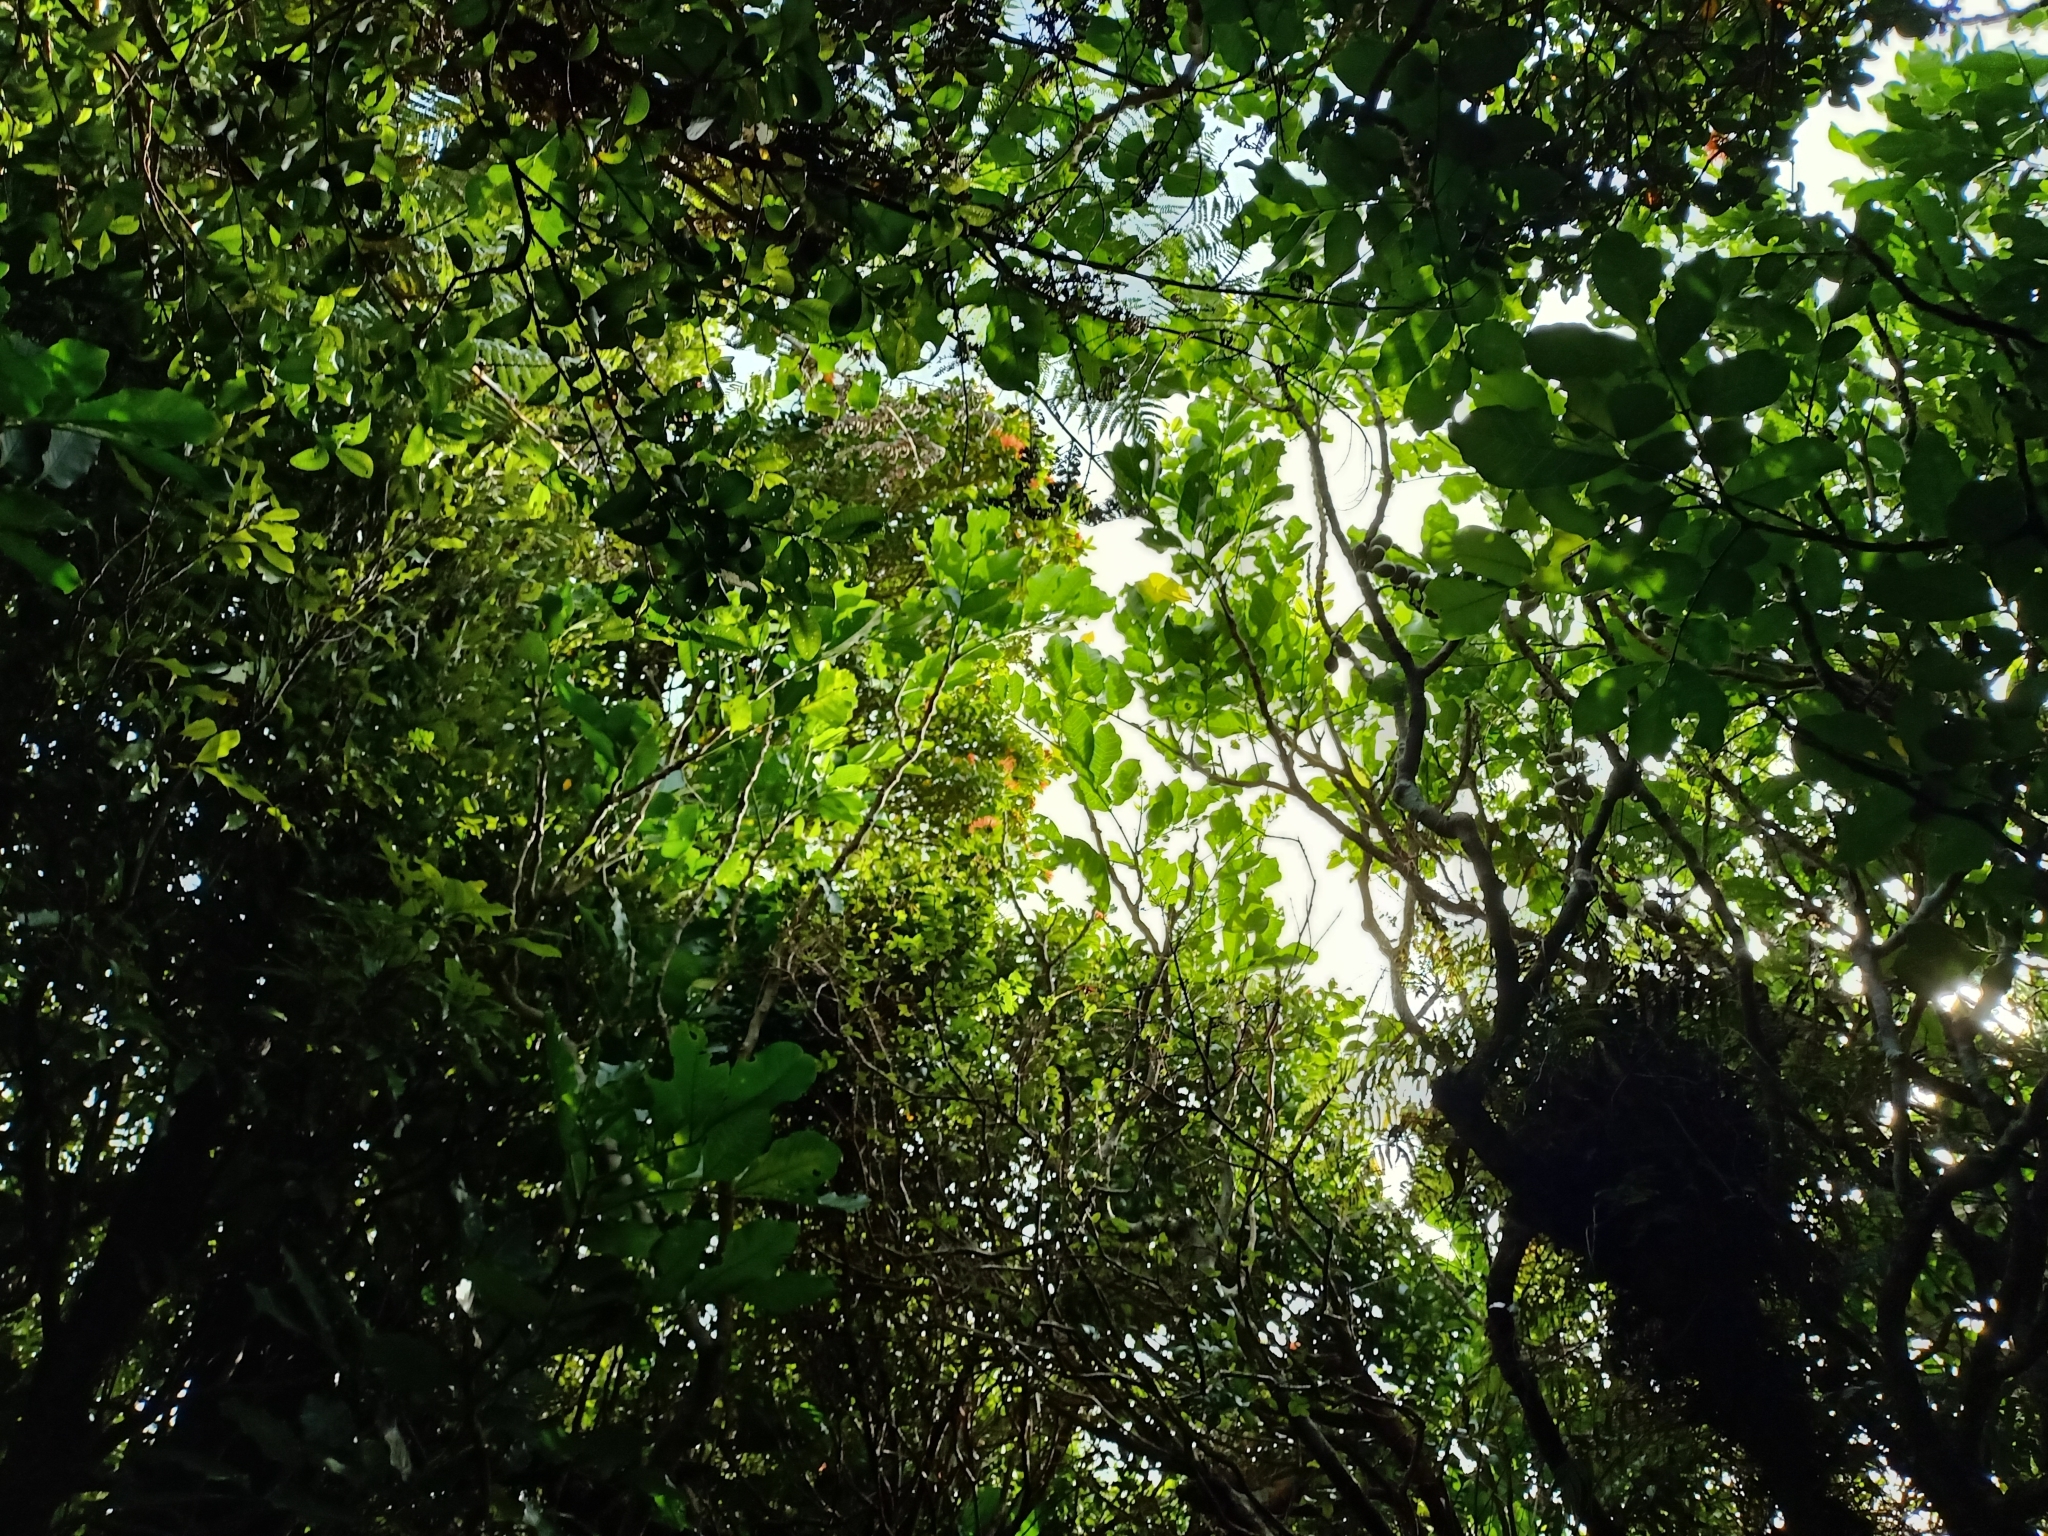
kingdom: Plantae
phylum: Tracheophyta
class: Magnoliopsida
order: Sapindales
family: Meliaceae
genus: Didymocheton
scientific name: Didymocheton spectabilis
